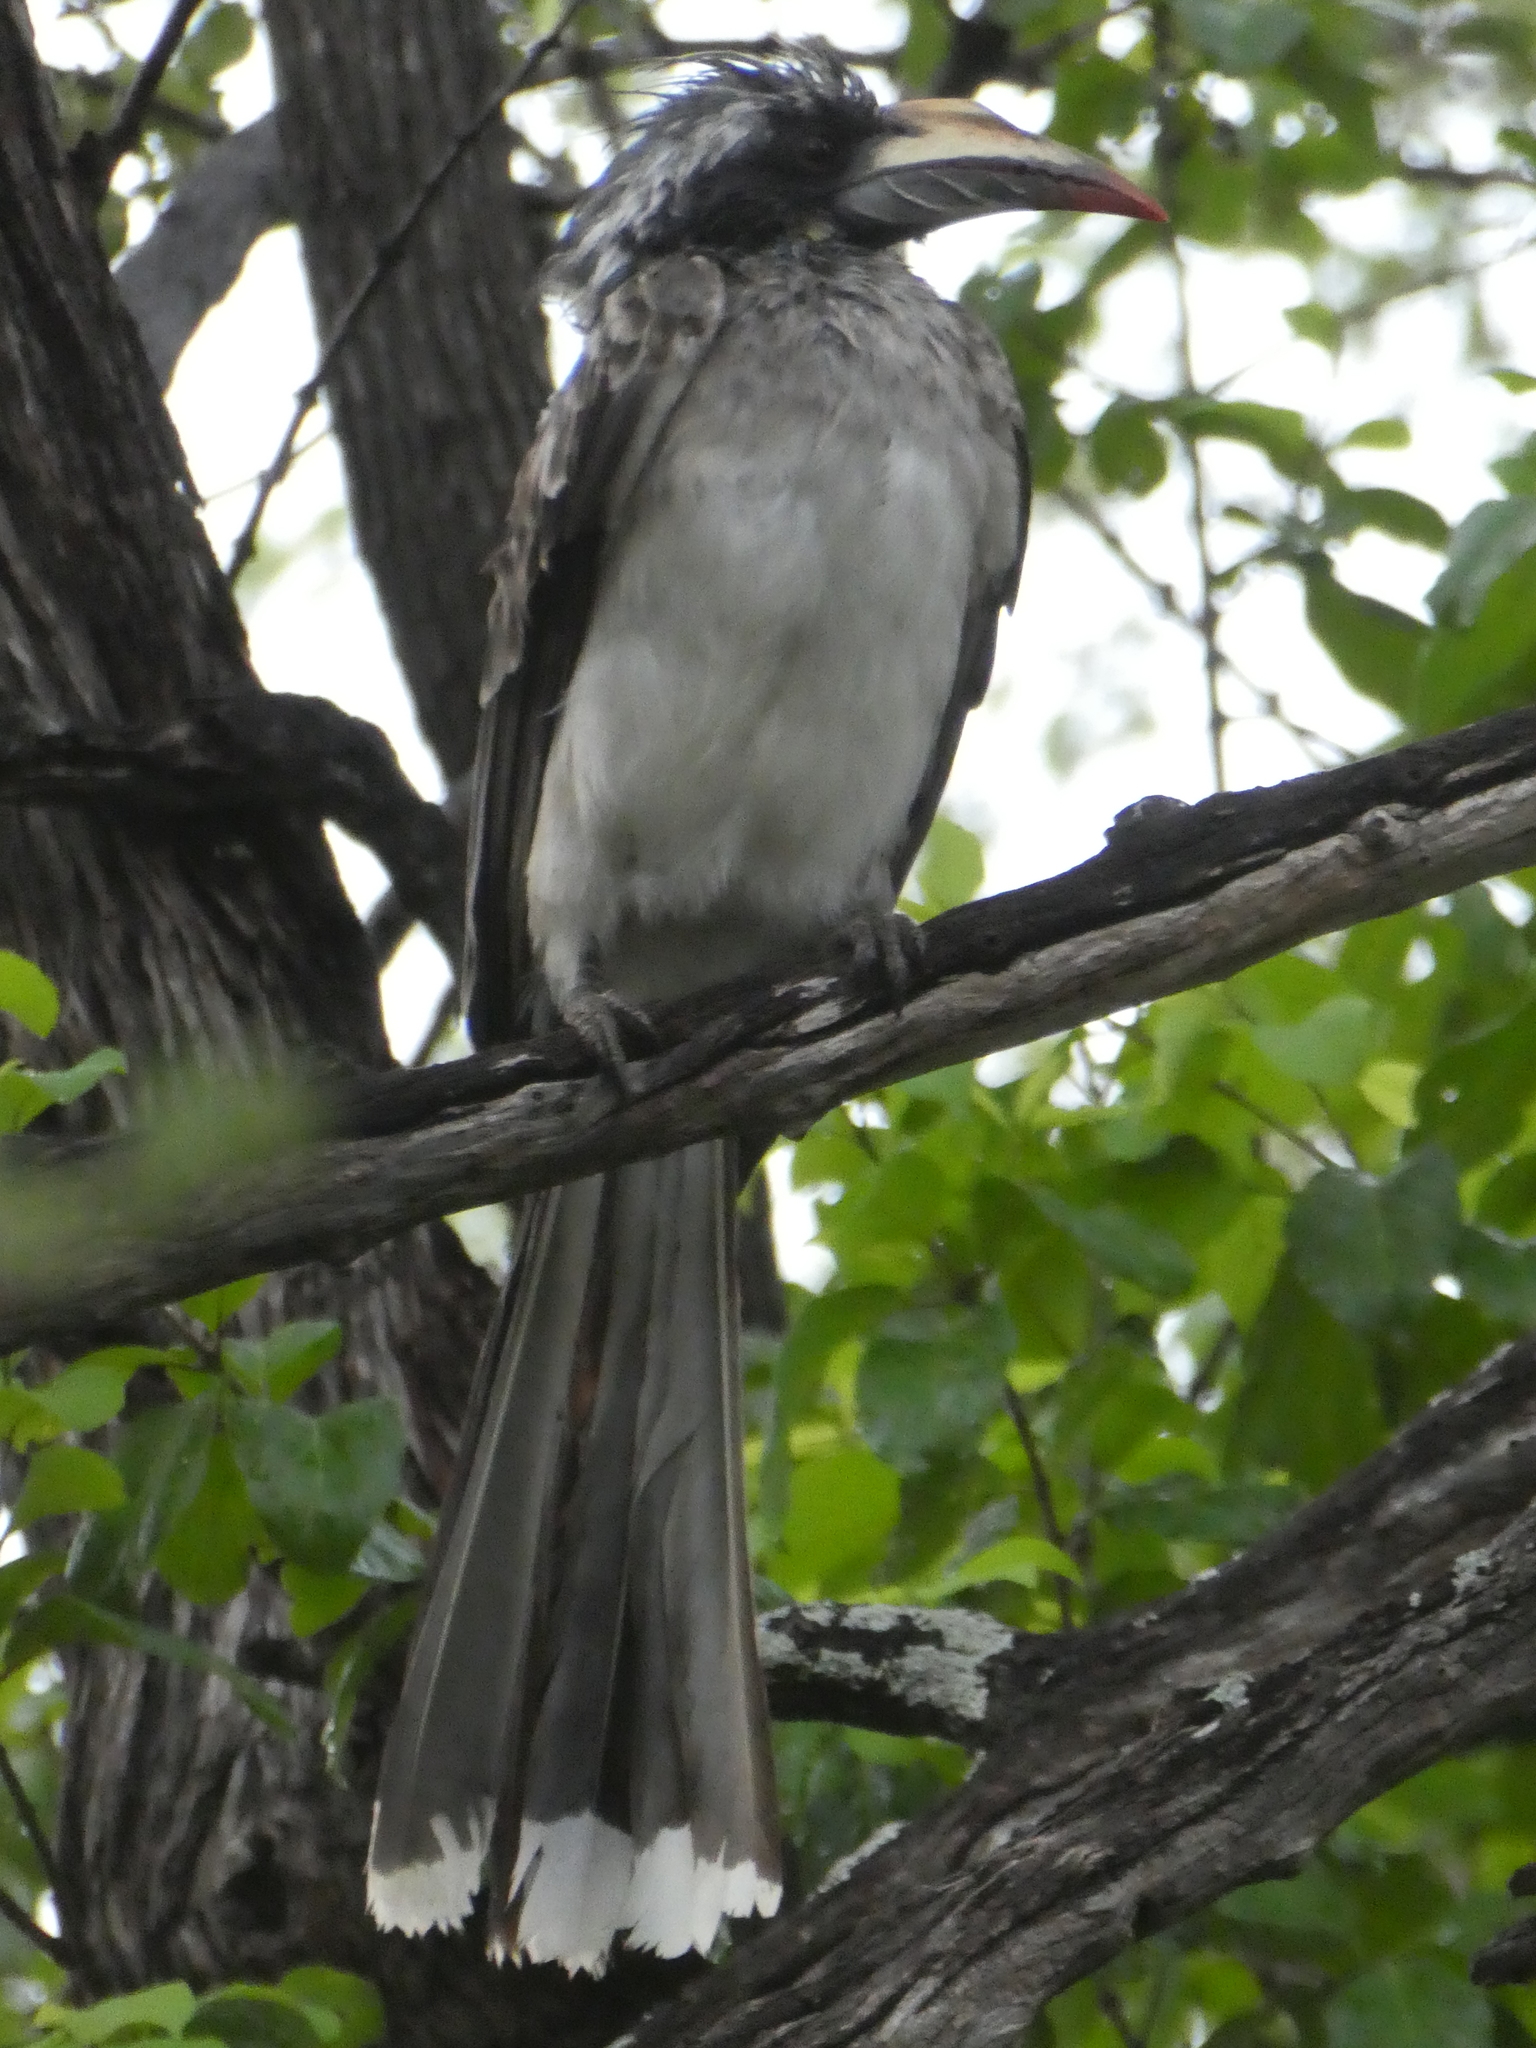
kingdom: Animalia
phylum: Chordata
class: Aves
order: Bucerotiformes
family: Bucerotidae
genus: Lophoceros
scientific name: Lophoceros nasutus
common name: African grey hornbill
